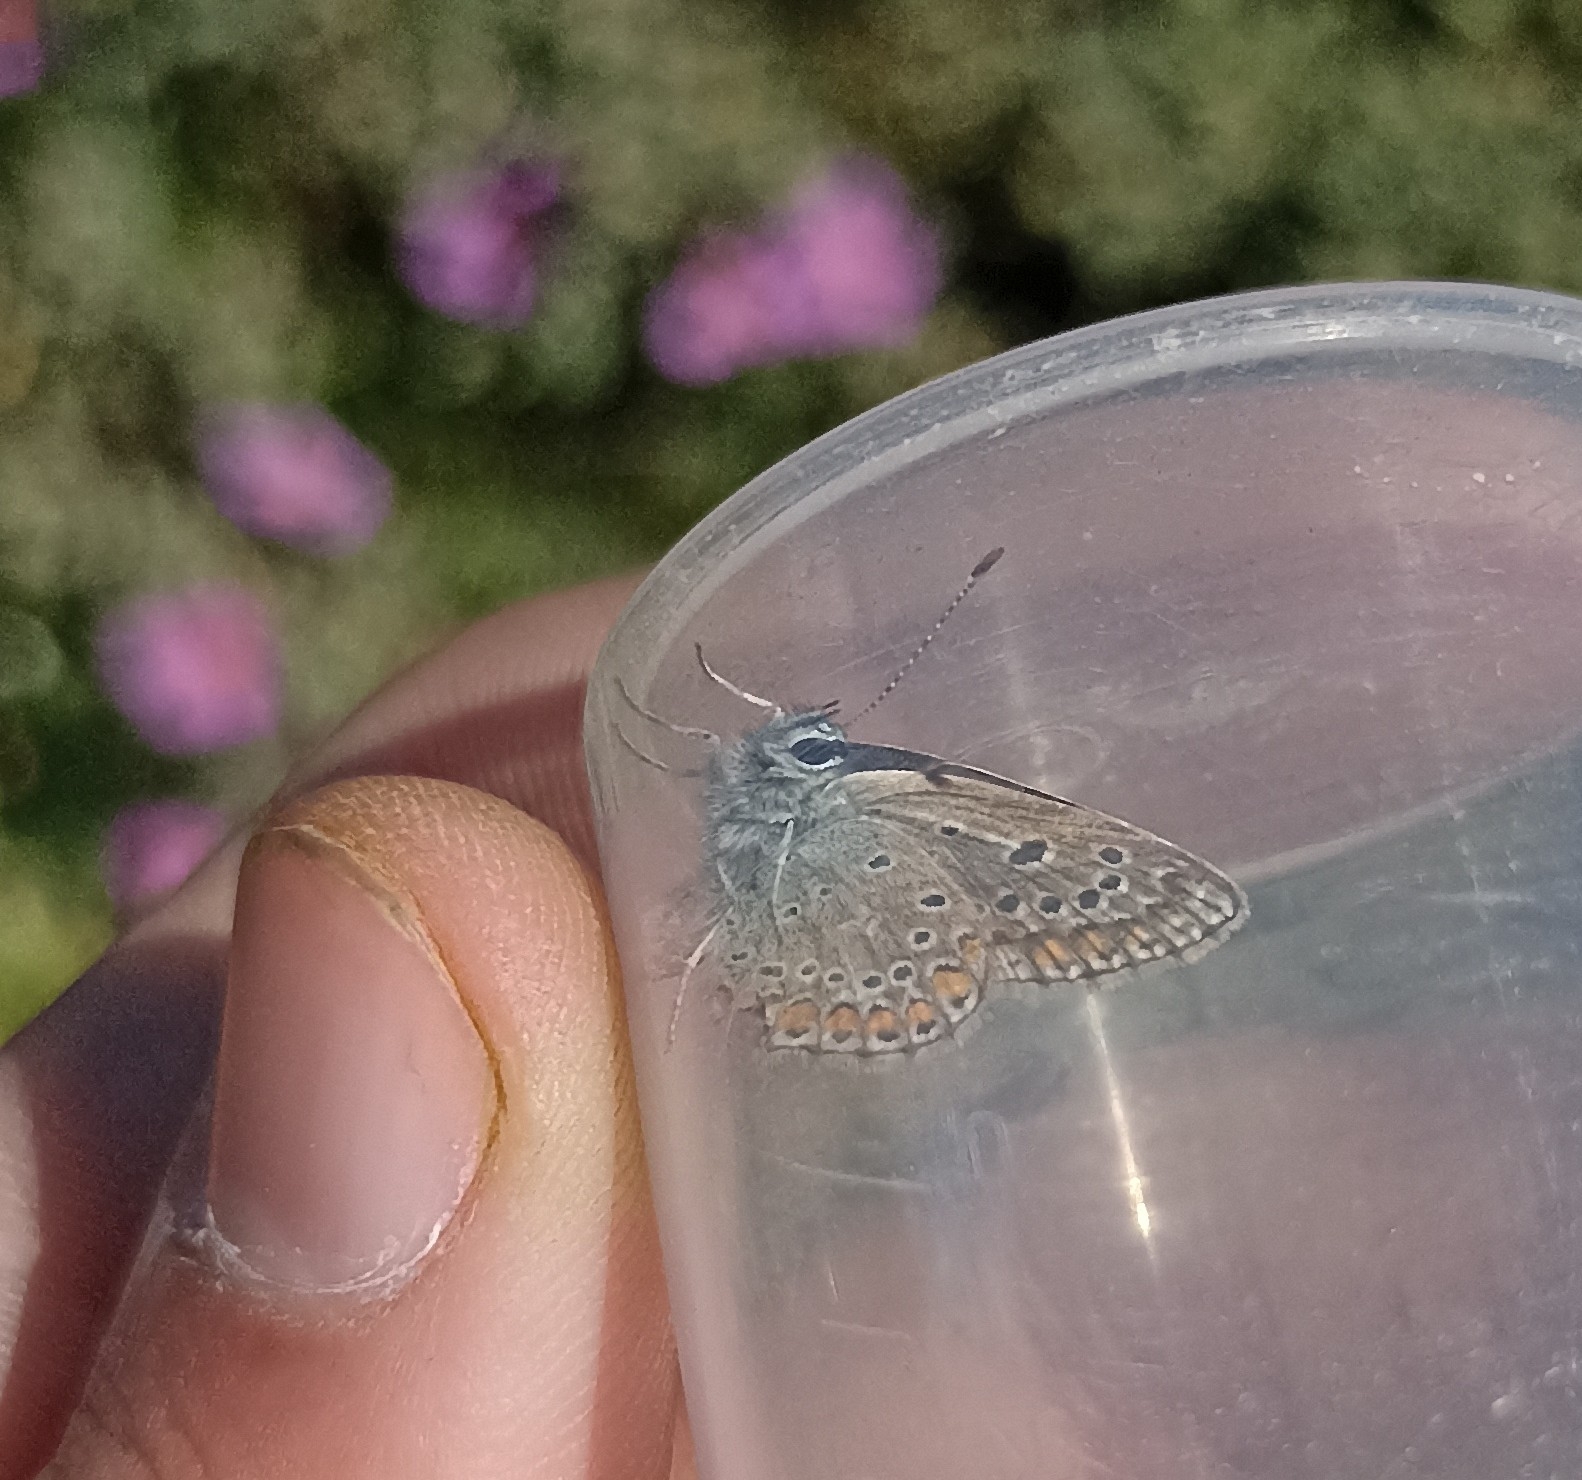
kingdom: Animalia
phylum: Arthropoda
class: Insecta
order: Lepidoptera
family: Lycaenidae
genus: Polyommatus
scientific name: Polyommatus icarus
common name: Common blue
